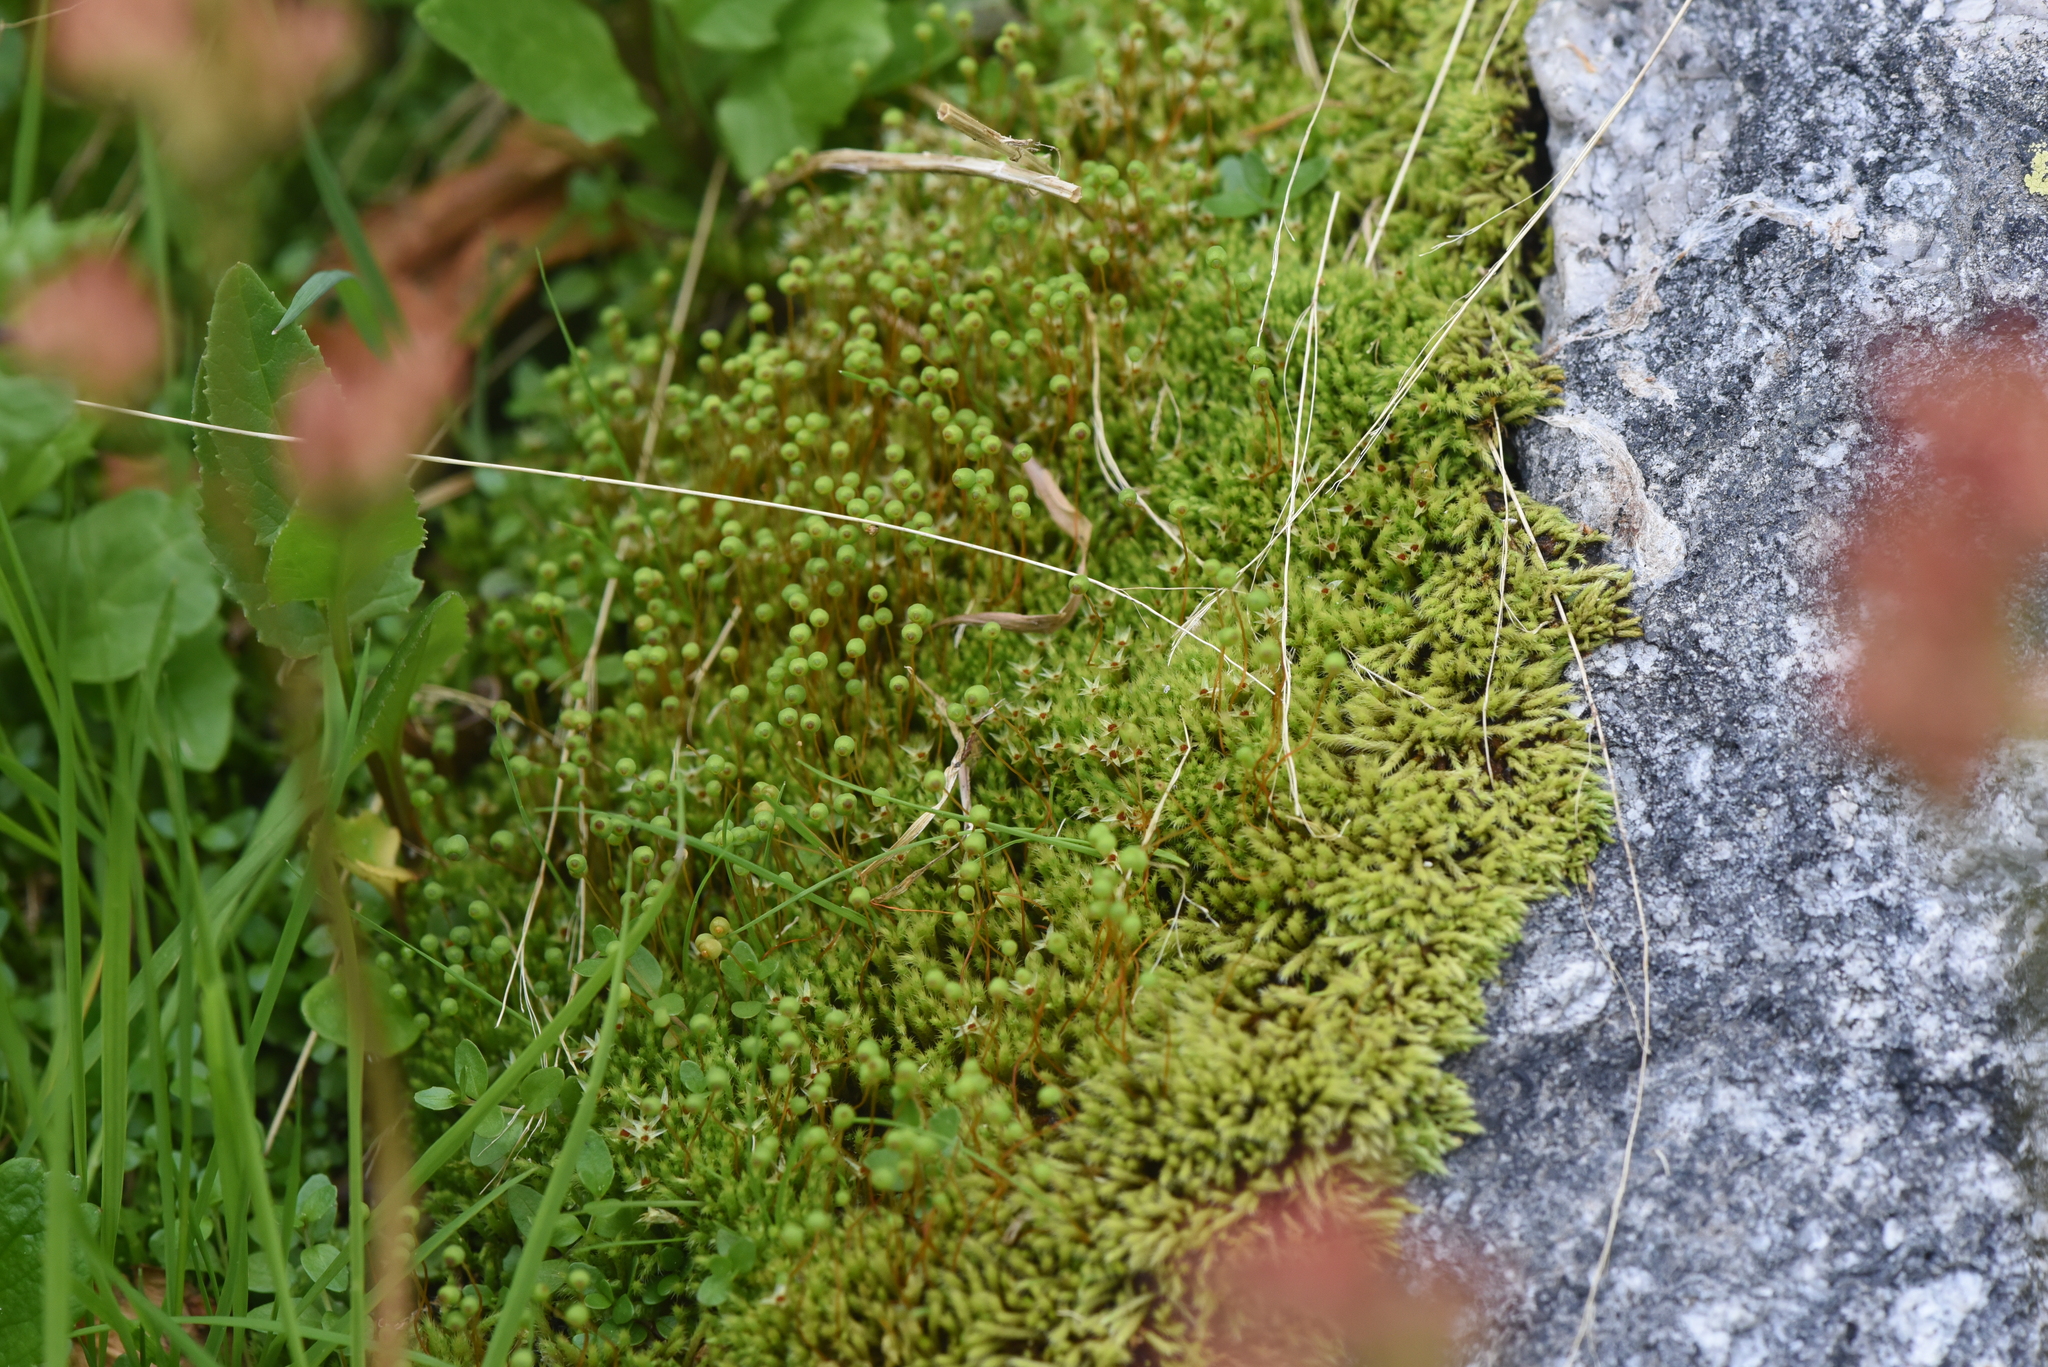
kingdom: Plantae
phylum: Bryophyta
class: Bryopsida
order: Bartramiales
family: Bartramiaceae
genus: Philonotis
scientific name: Philonotis fontana
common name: Fountain apple-moss
